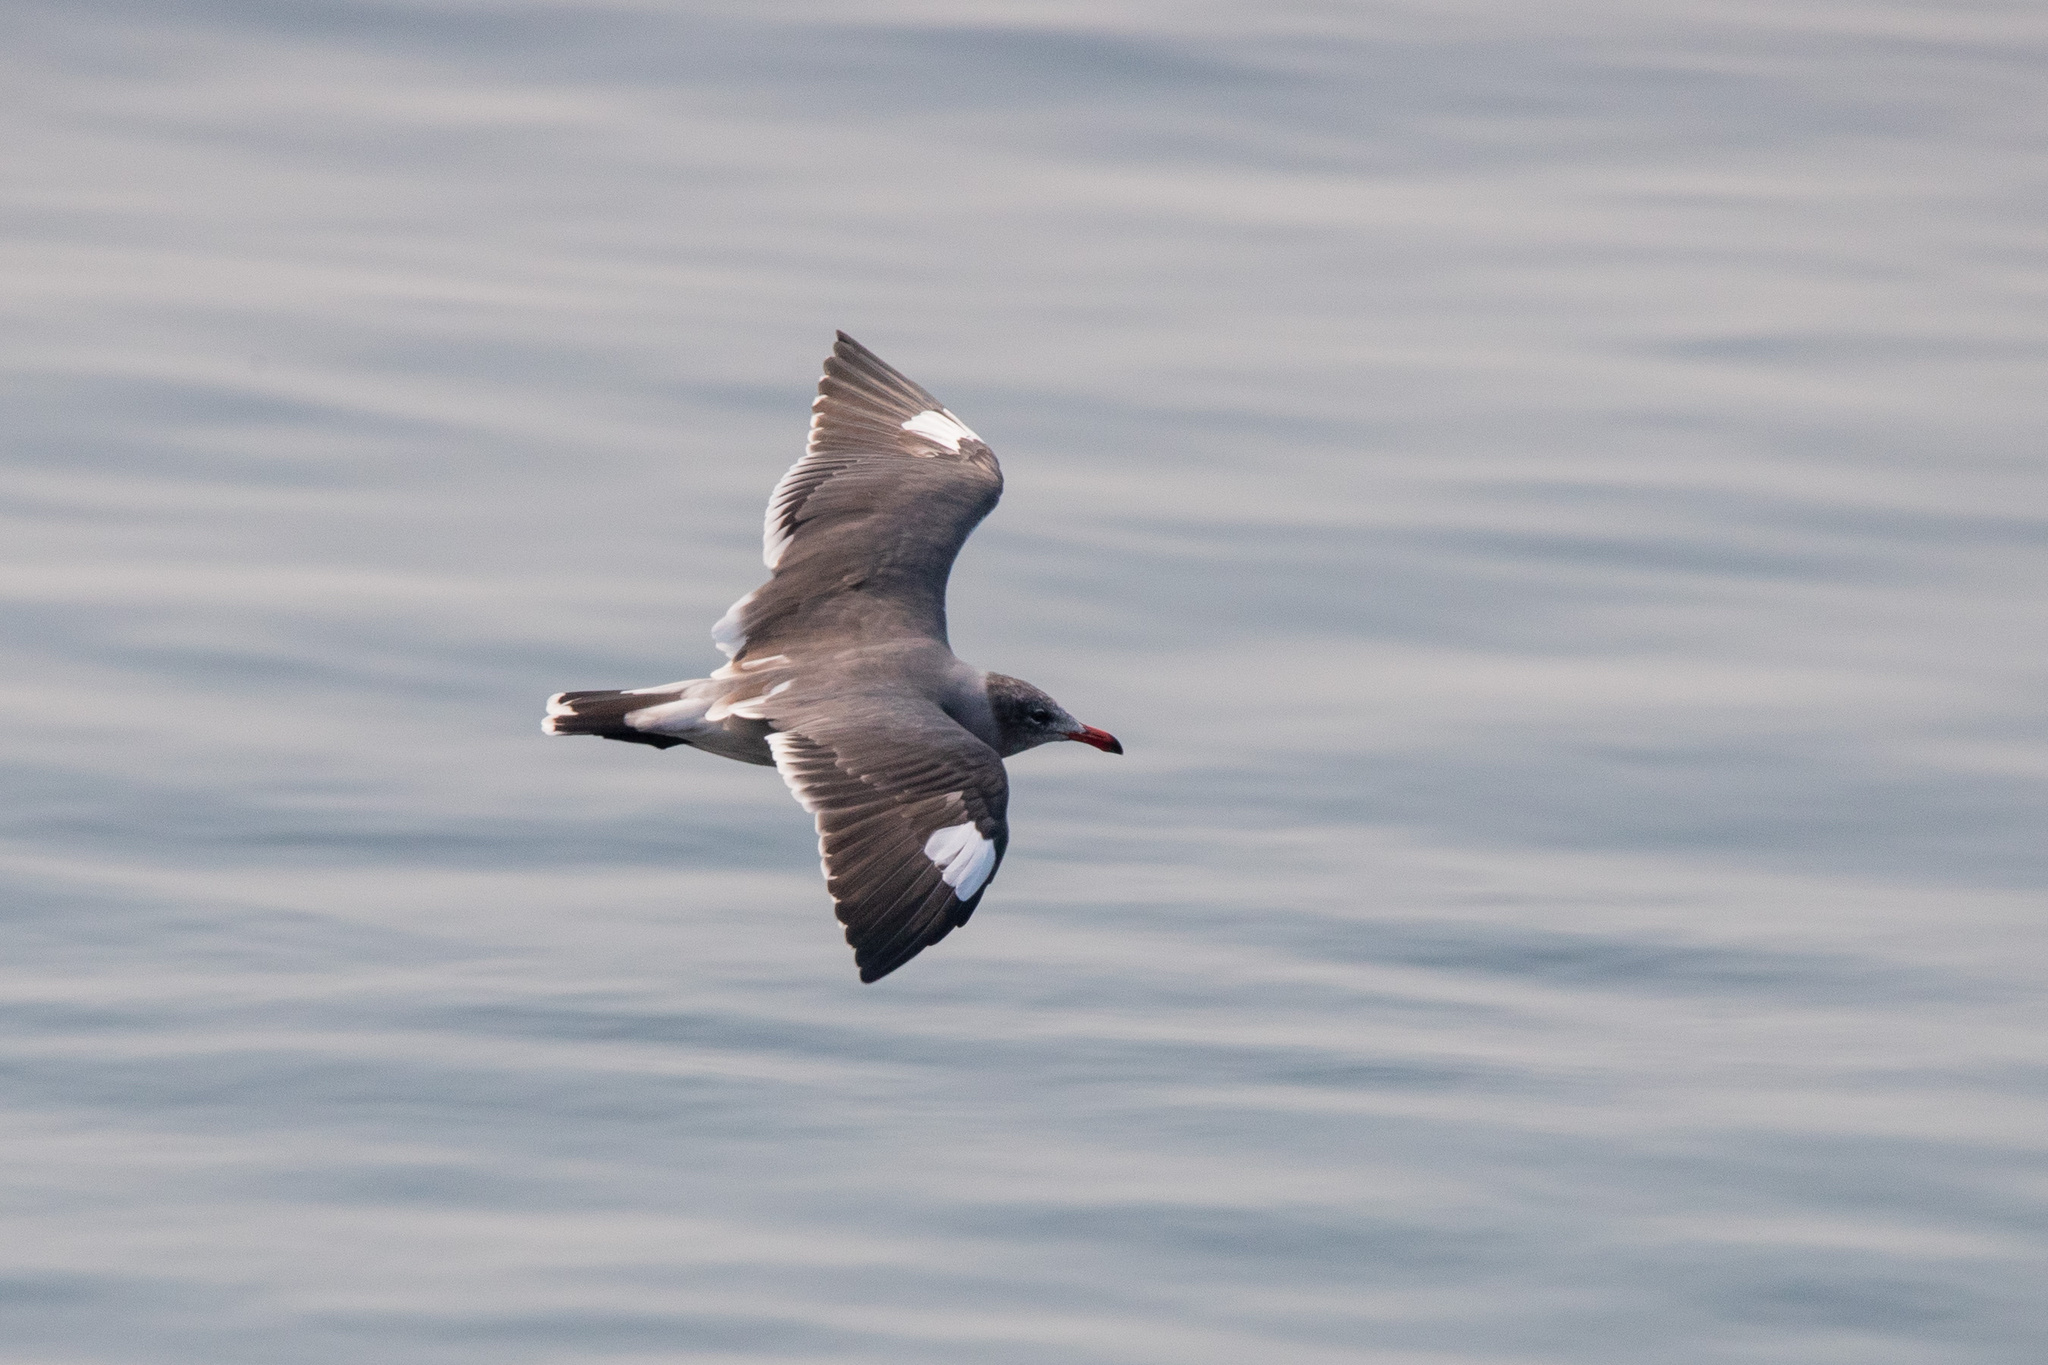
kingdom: Animalia
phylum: Chordata
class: Aves
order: Charadriiformes
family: Laridae
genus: Larus
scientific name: Larus heermanni
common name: Heermann's gull
